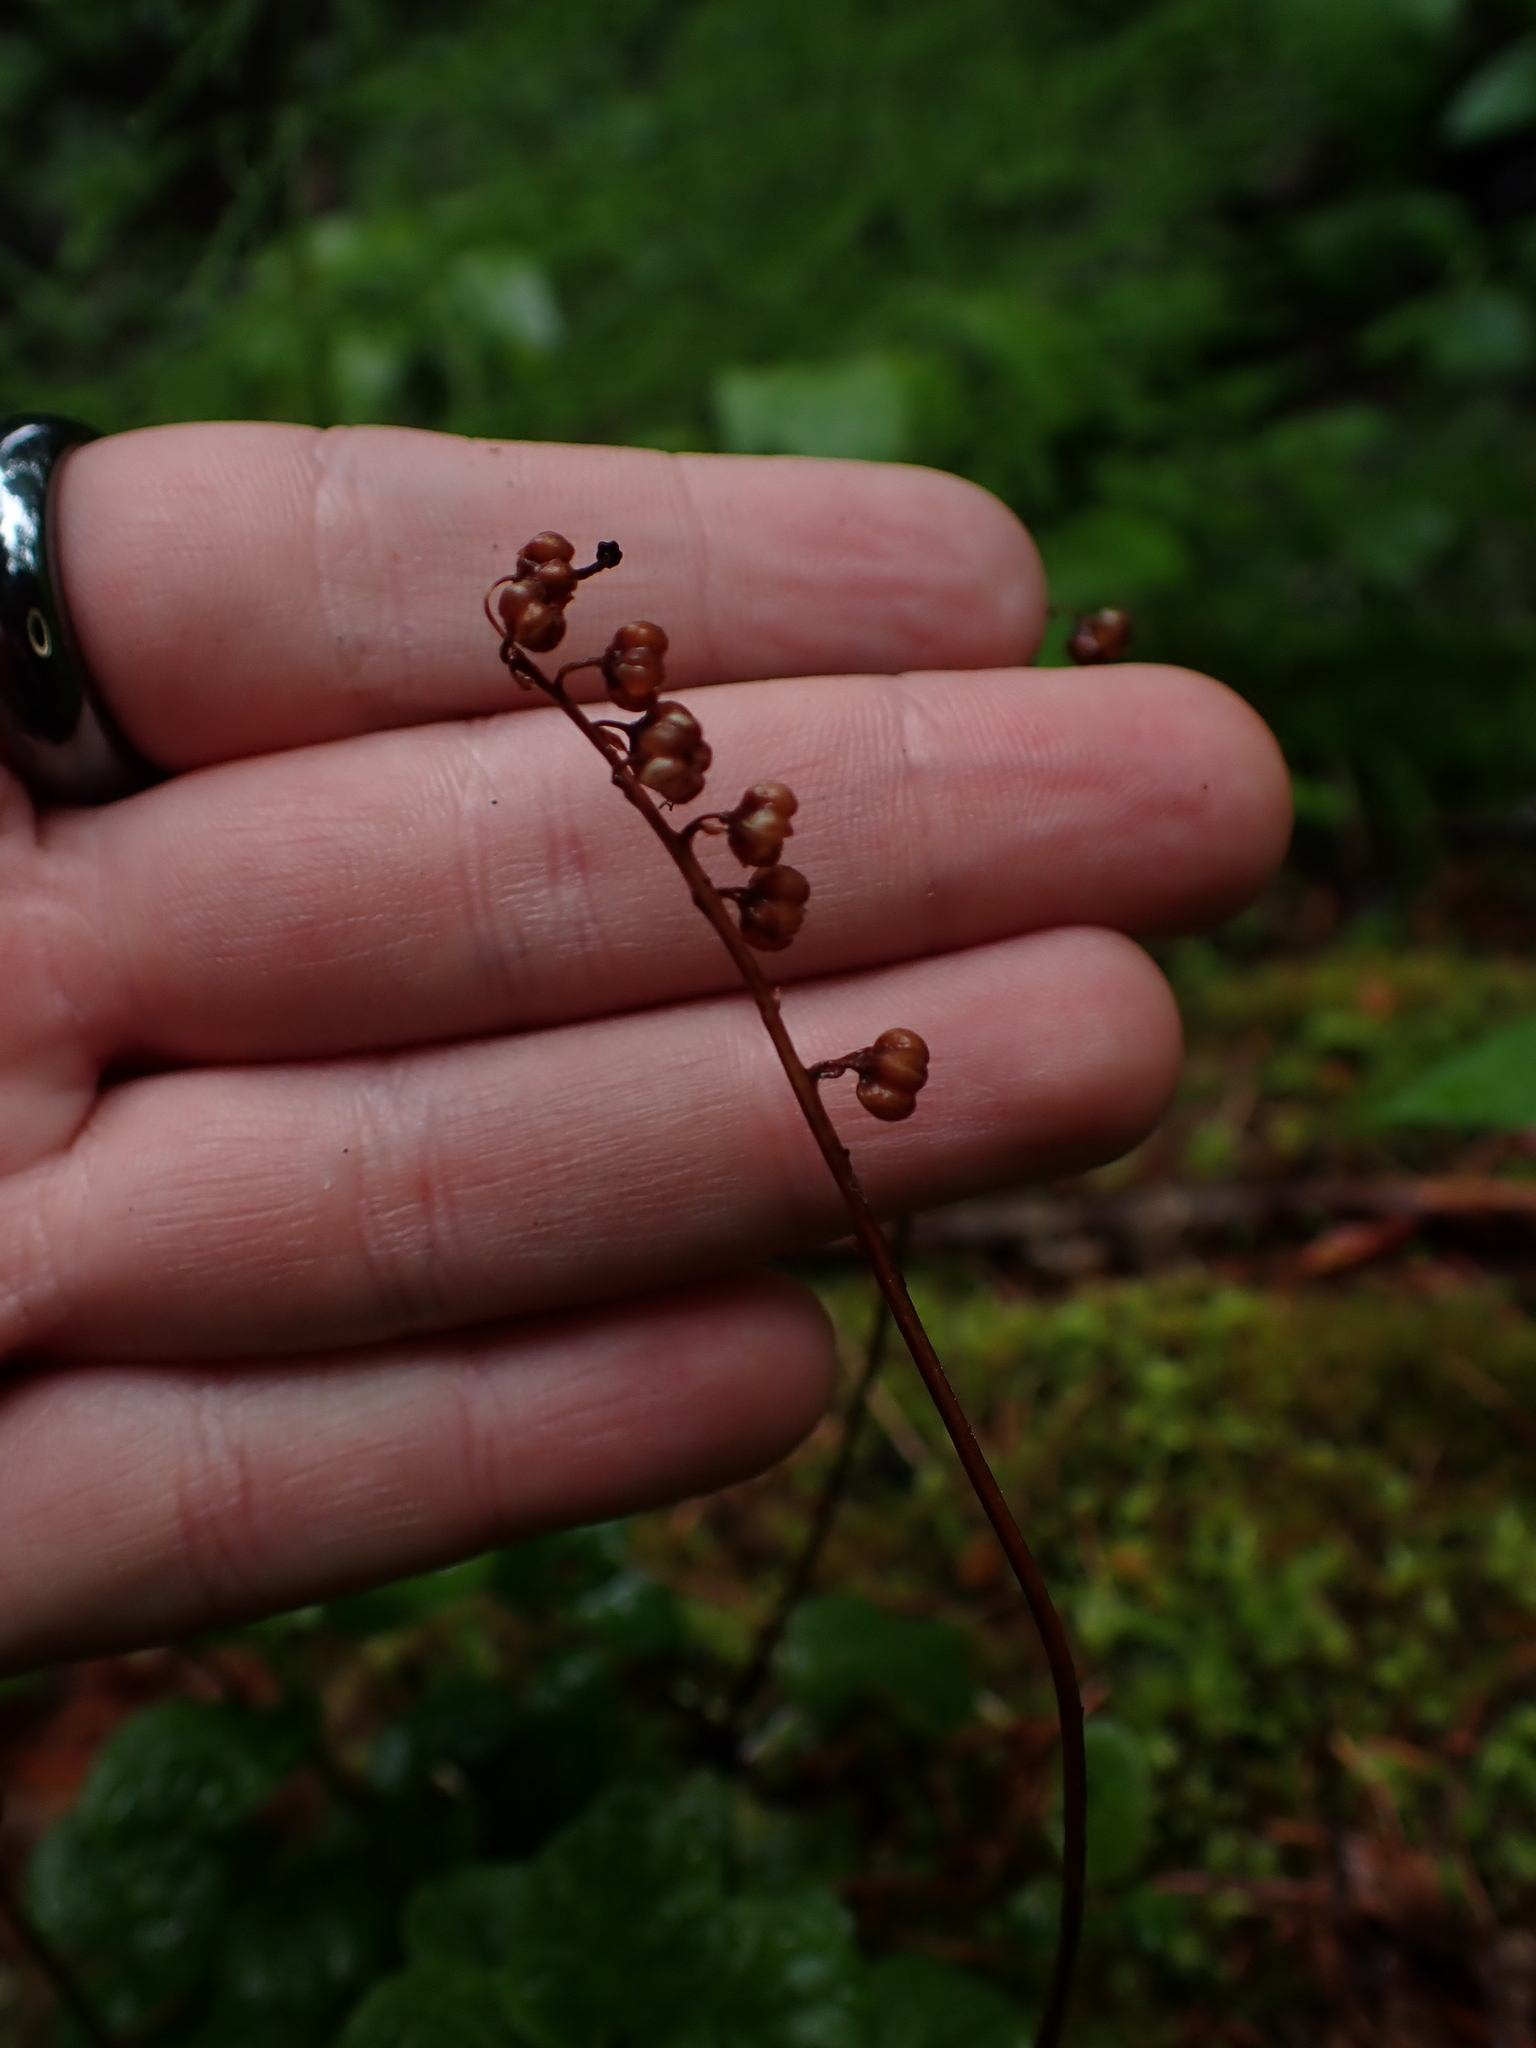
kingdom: Plantae
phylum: Tracheophyta
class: Magnoliopsida
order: Ericales
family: Ericaceae
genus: Orthilia
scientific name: Orthilia secunda
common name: One-sided orthilia
